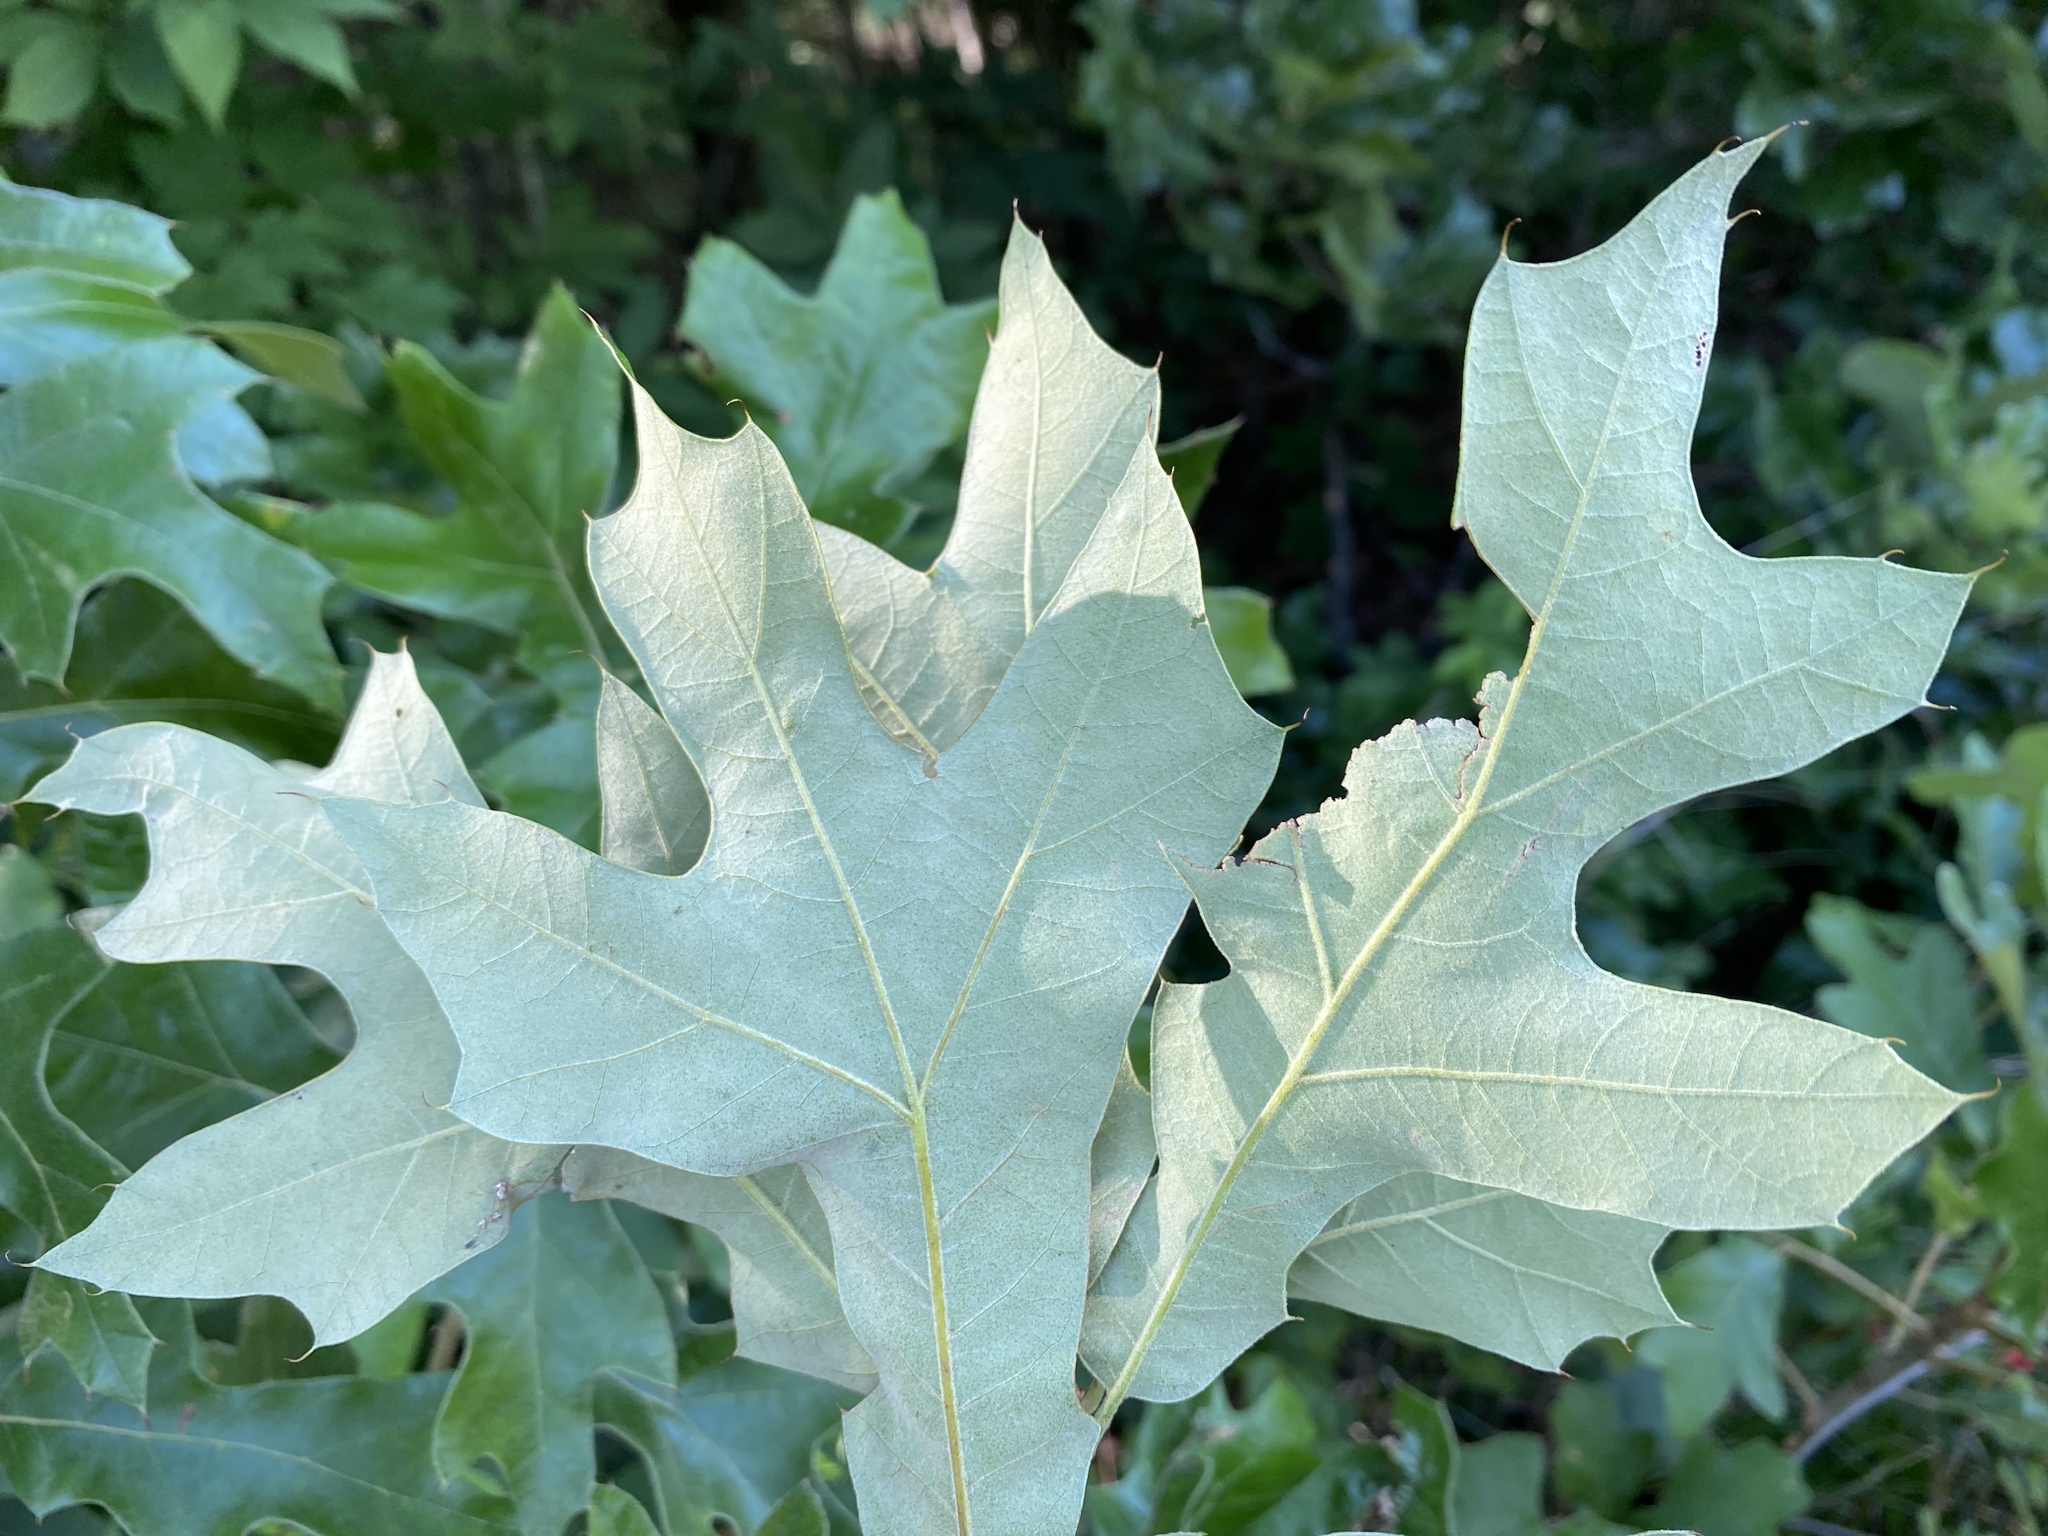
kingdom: Plantae
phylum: Tracheophyta
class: Magnoliopsida
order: Fagales
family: Fagaceae
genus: Quercus
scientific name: Quercus falcata
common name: Southern red oak
